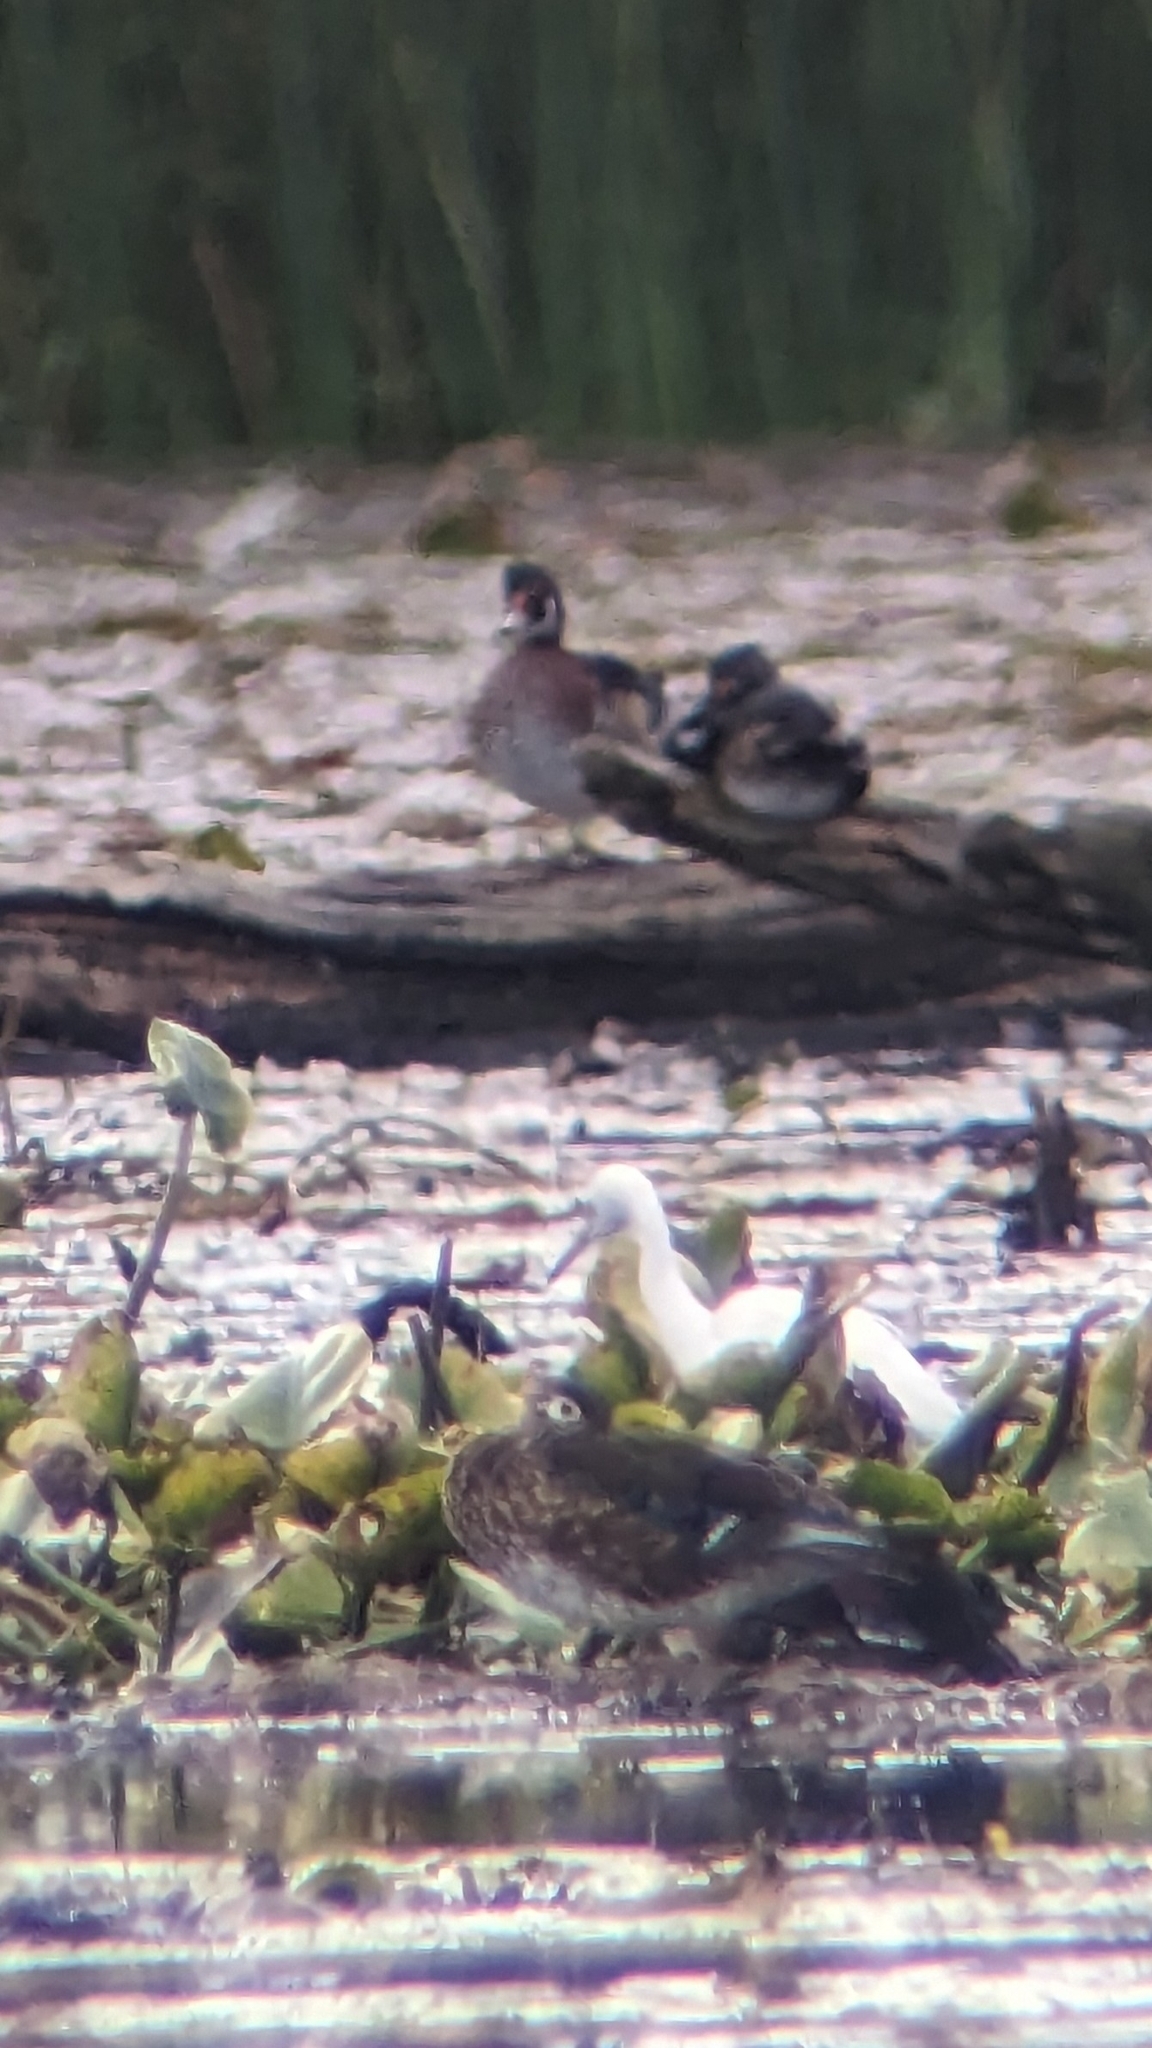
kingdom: Animalia
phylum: Chordata
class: Aves
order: Pelecaniformes
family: Ardeidae
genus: Egretta
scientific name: Egretta caerulea
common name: Little blue heron
